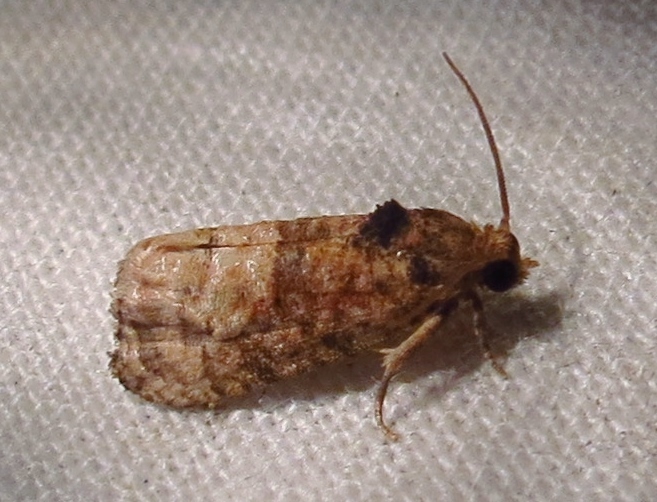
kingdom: Animalia
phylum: Arthropoda
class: Insecta
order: Lepidoptera
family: Tortricidae
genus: Ecdytolopha
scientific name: Ecdytolopha mana
